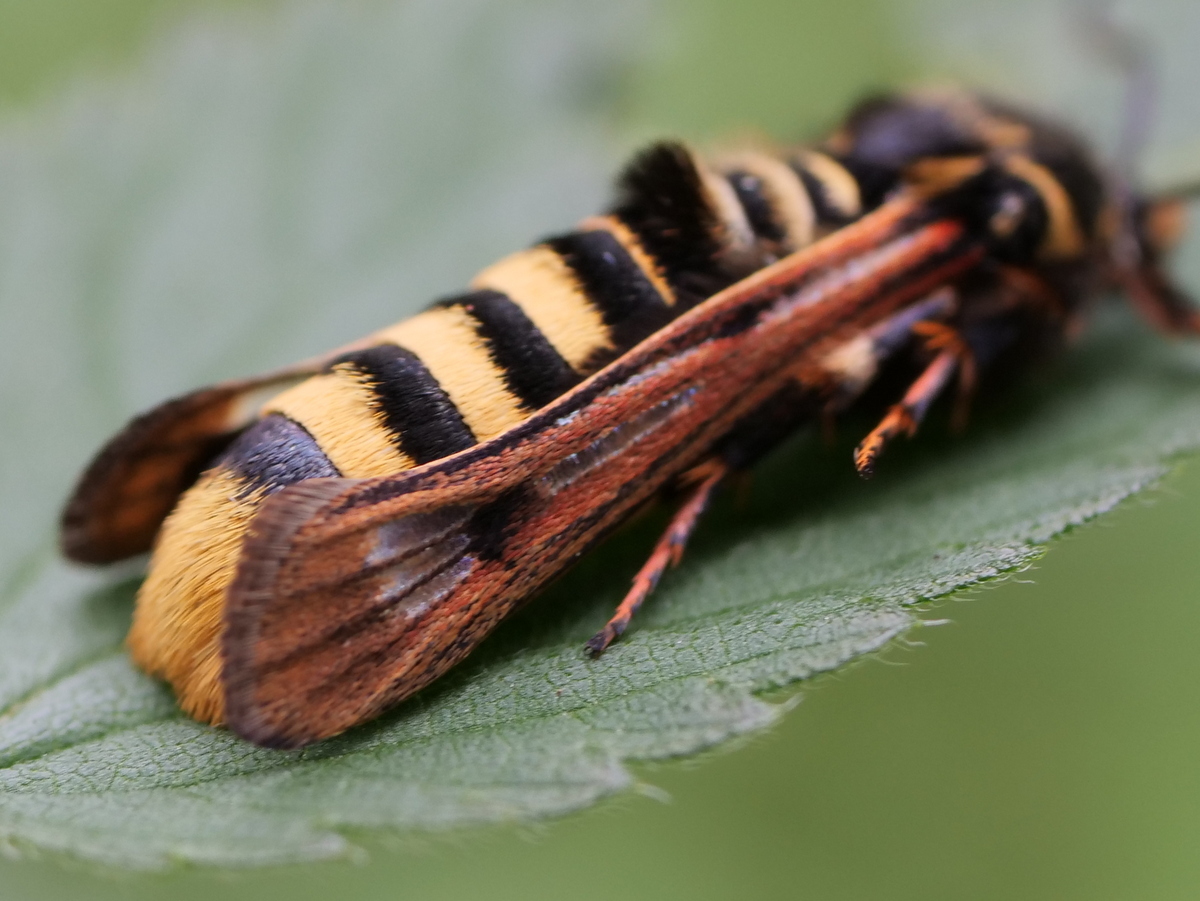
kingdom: Animalia
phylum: Arthropoda
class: Insecta
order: Lepidoptera
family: Sesiidae
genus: Pennisetia
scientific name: Pennisetia hylaeiformis
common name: Raspberry clearwing
